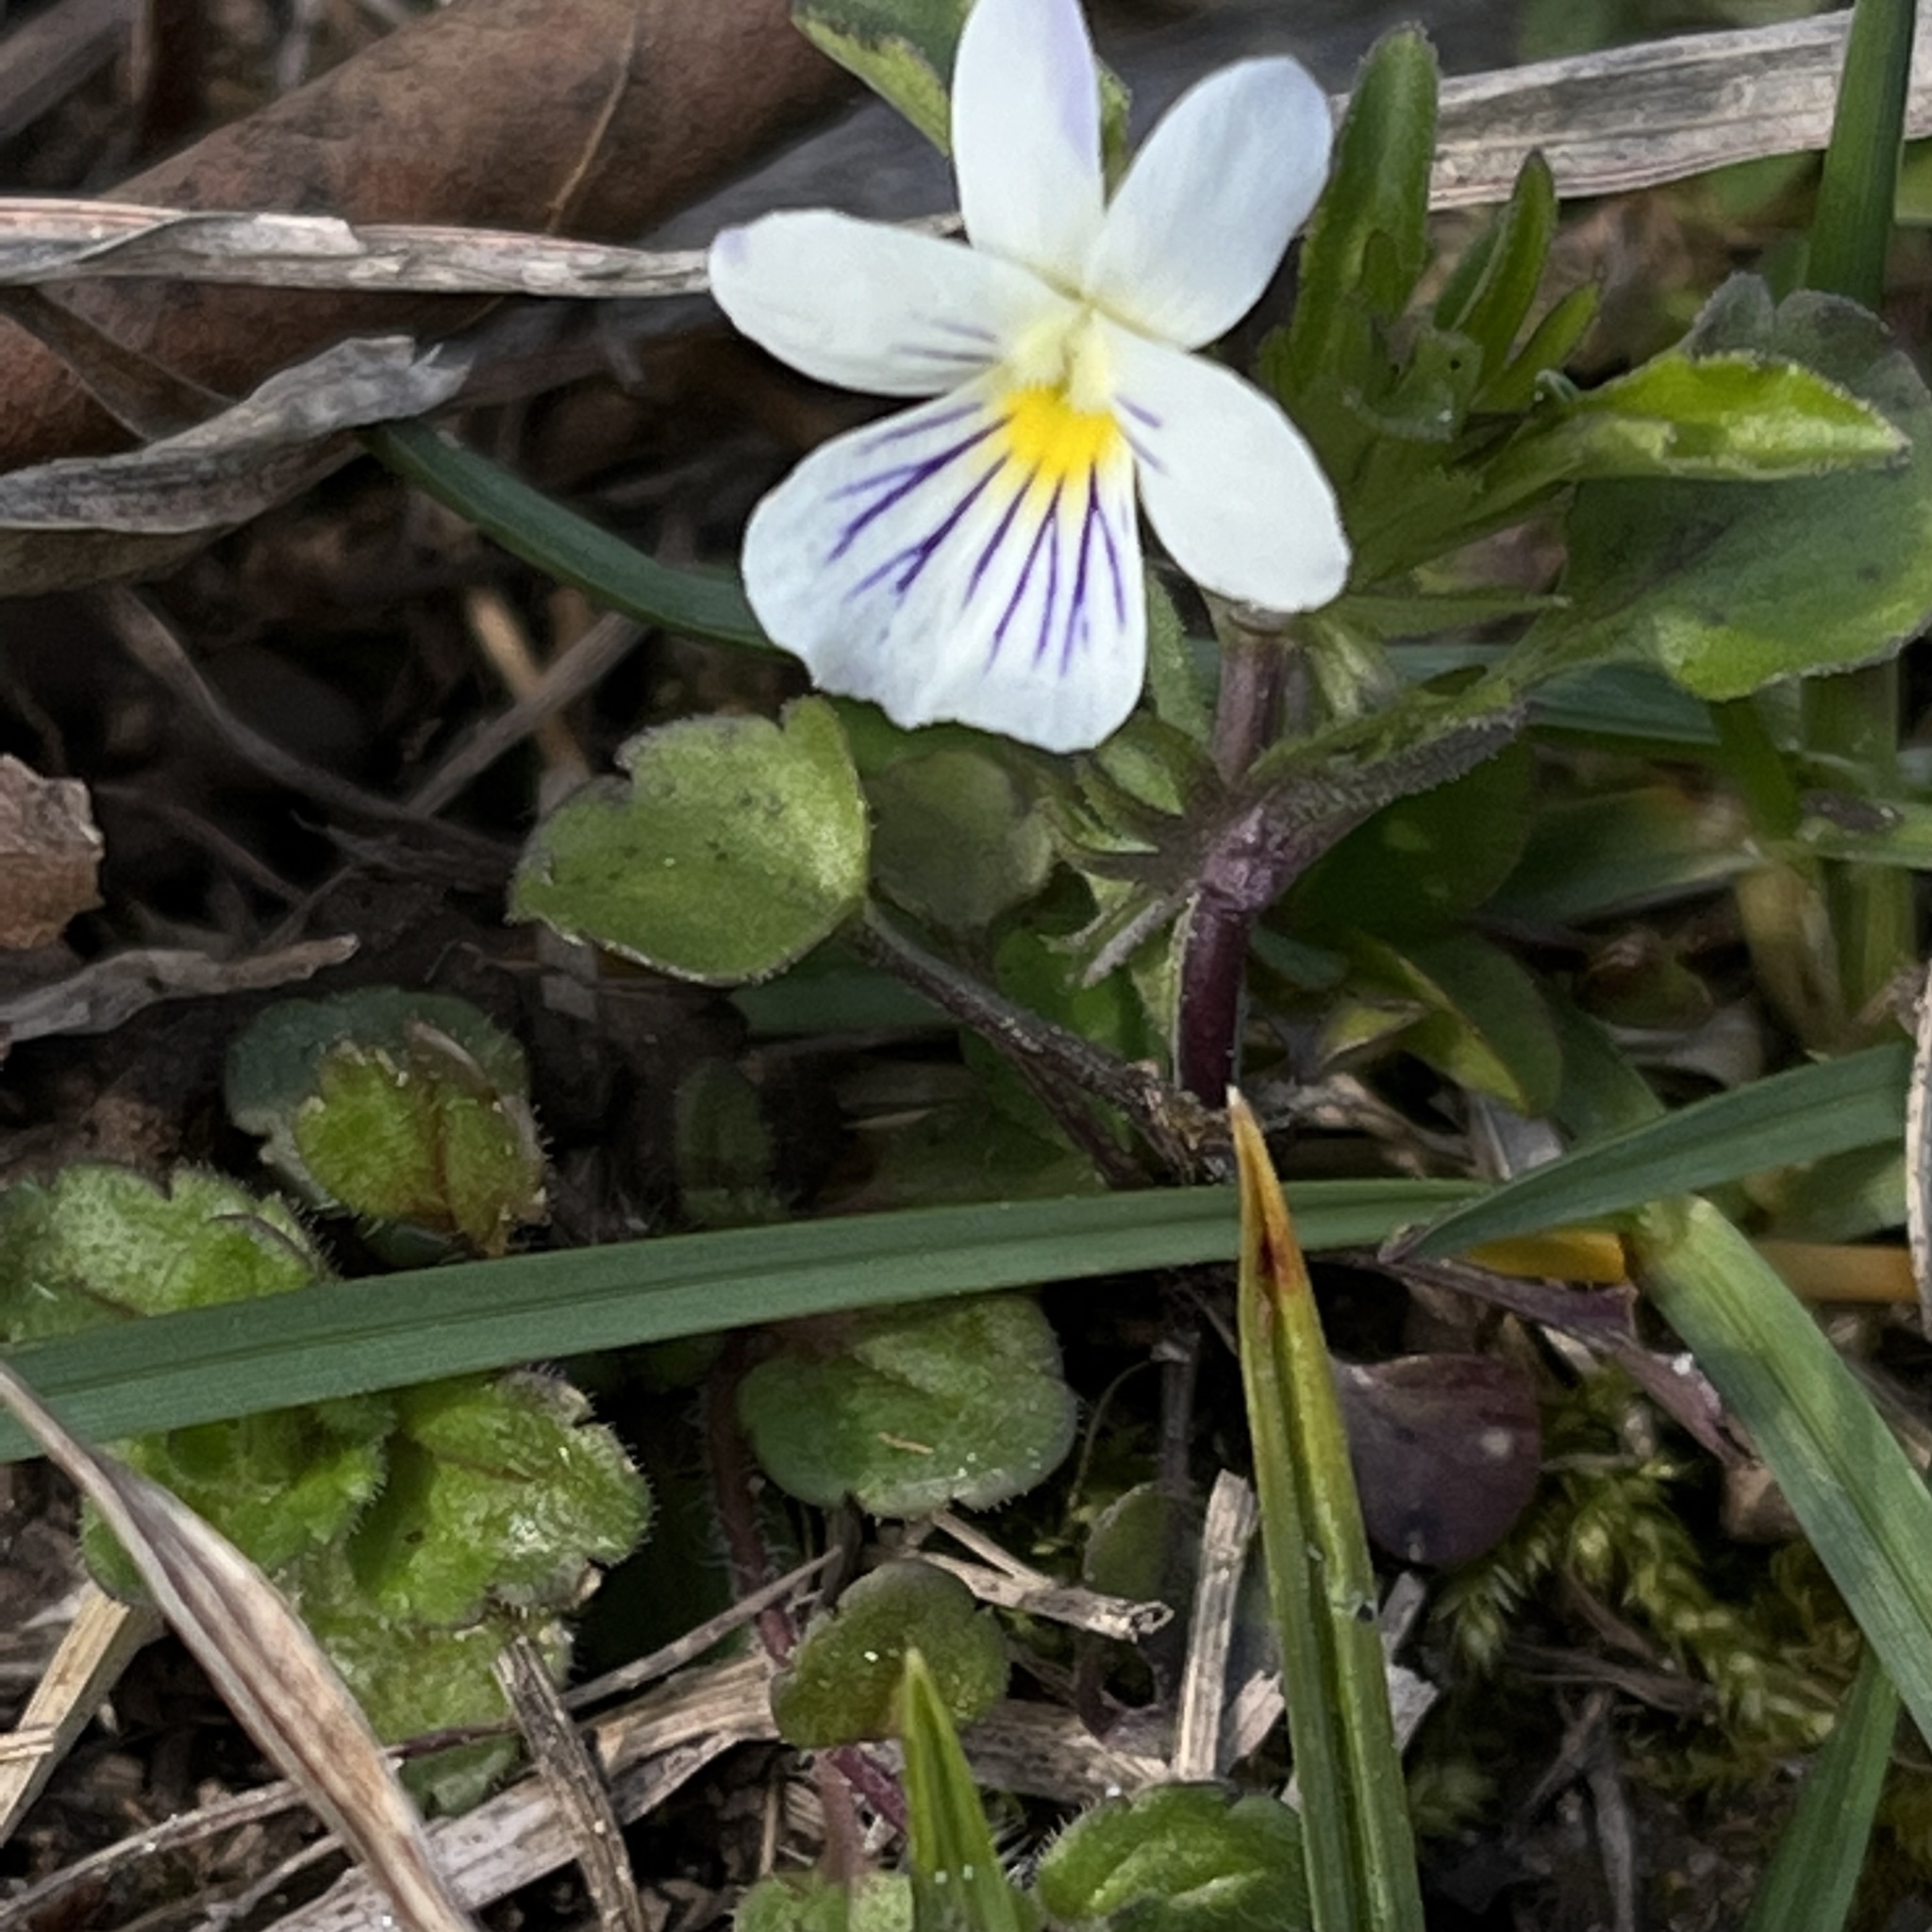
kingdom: Plantae
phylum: Tracheophyta
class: Magnoliopsida
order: Malpighiales
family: Violaceae
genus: Viola
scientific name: Viola rafinesquei
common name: American field pansy
